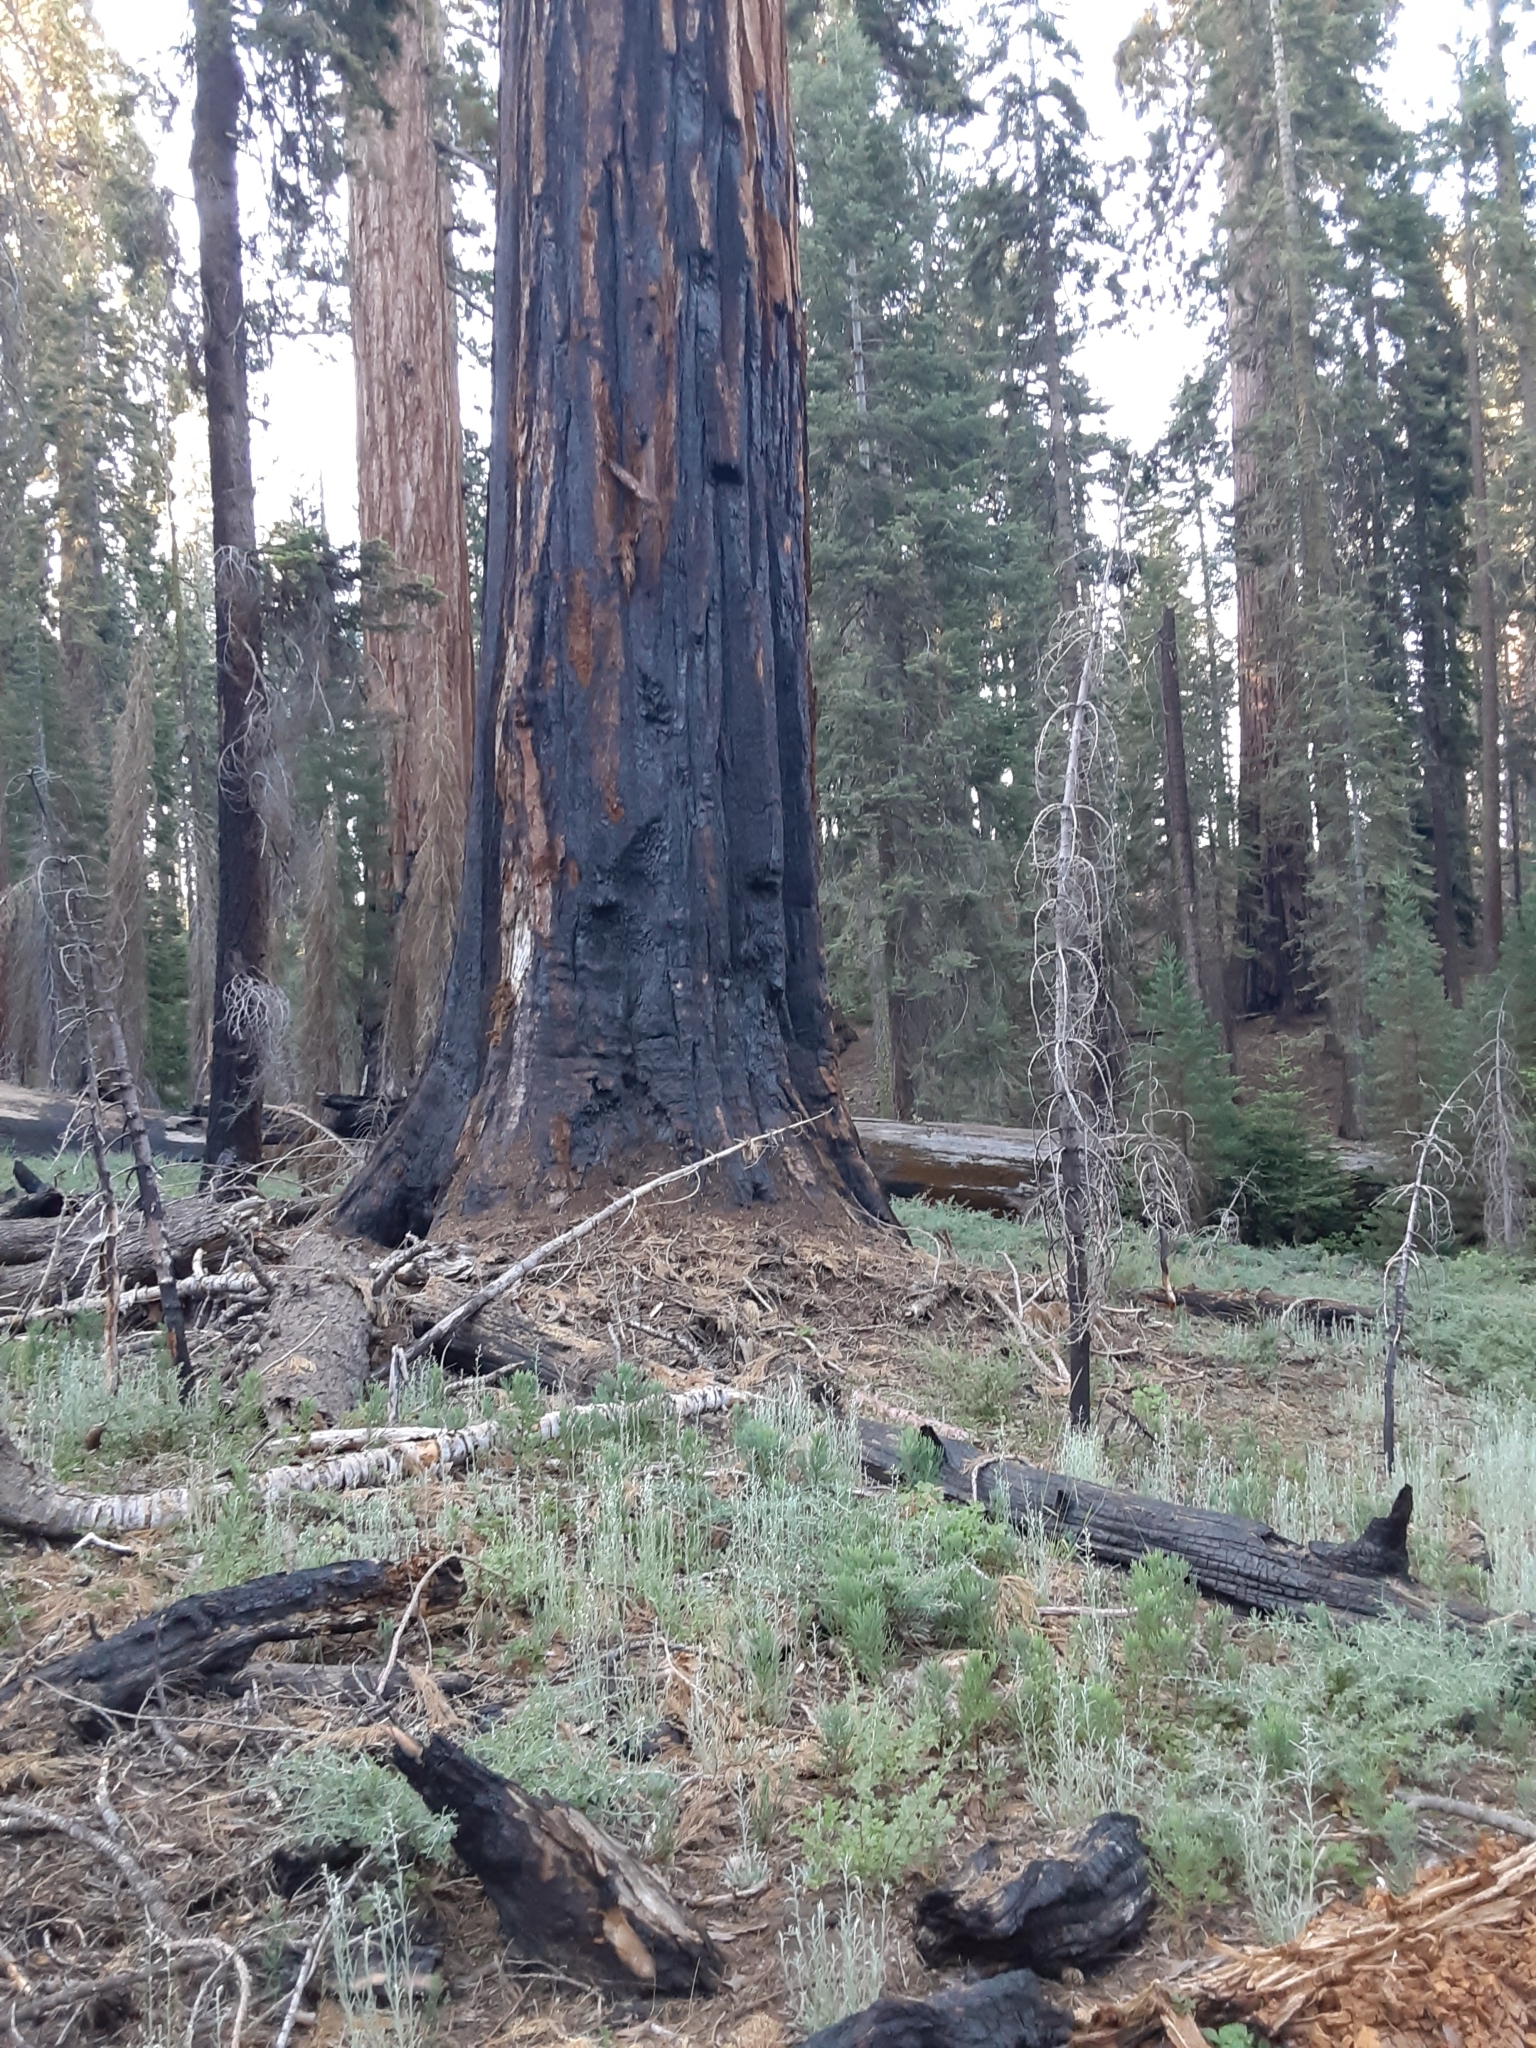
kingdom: Plantae
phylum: Tracheophyta
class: Pinopsida
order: Pinales
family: Cupressaceae
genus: Sequoiadendron
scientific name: Sequoiadendron giganteum
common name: Wellingtonia
